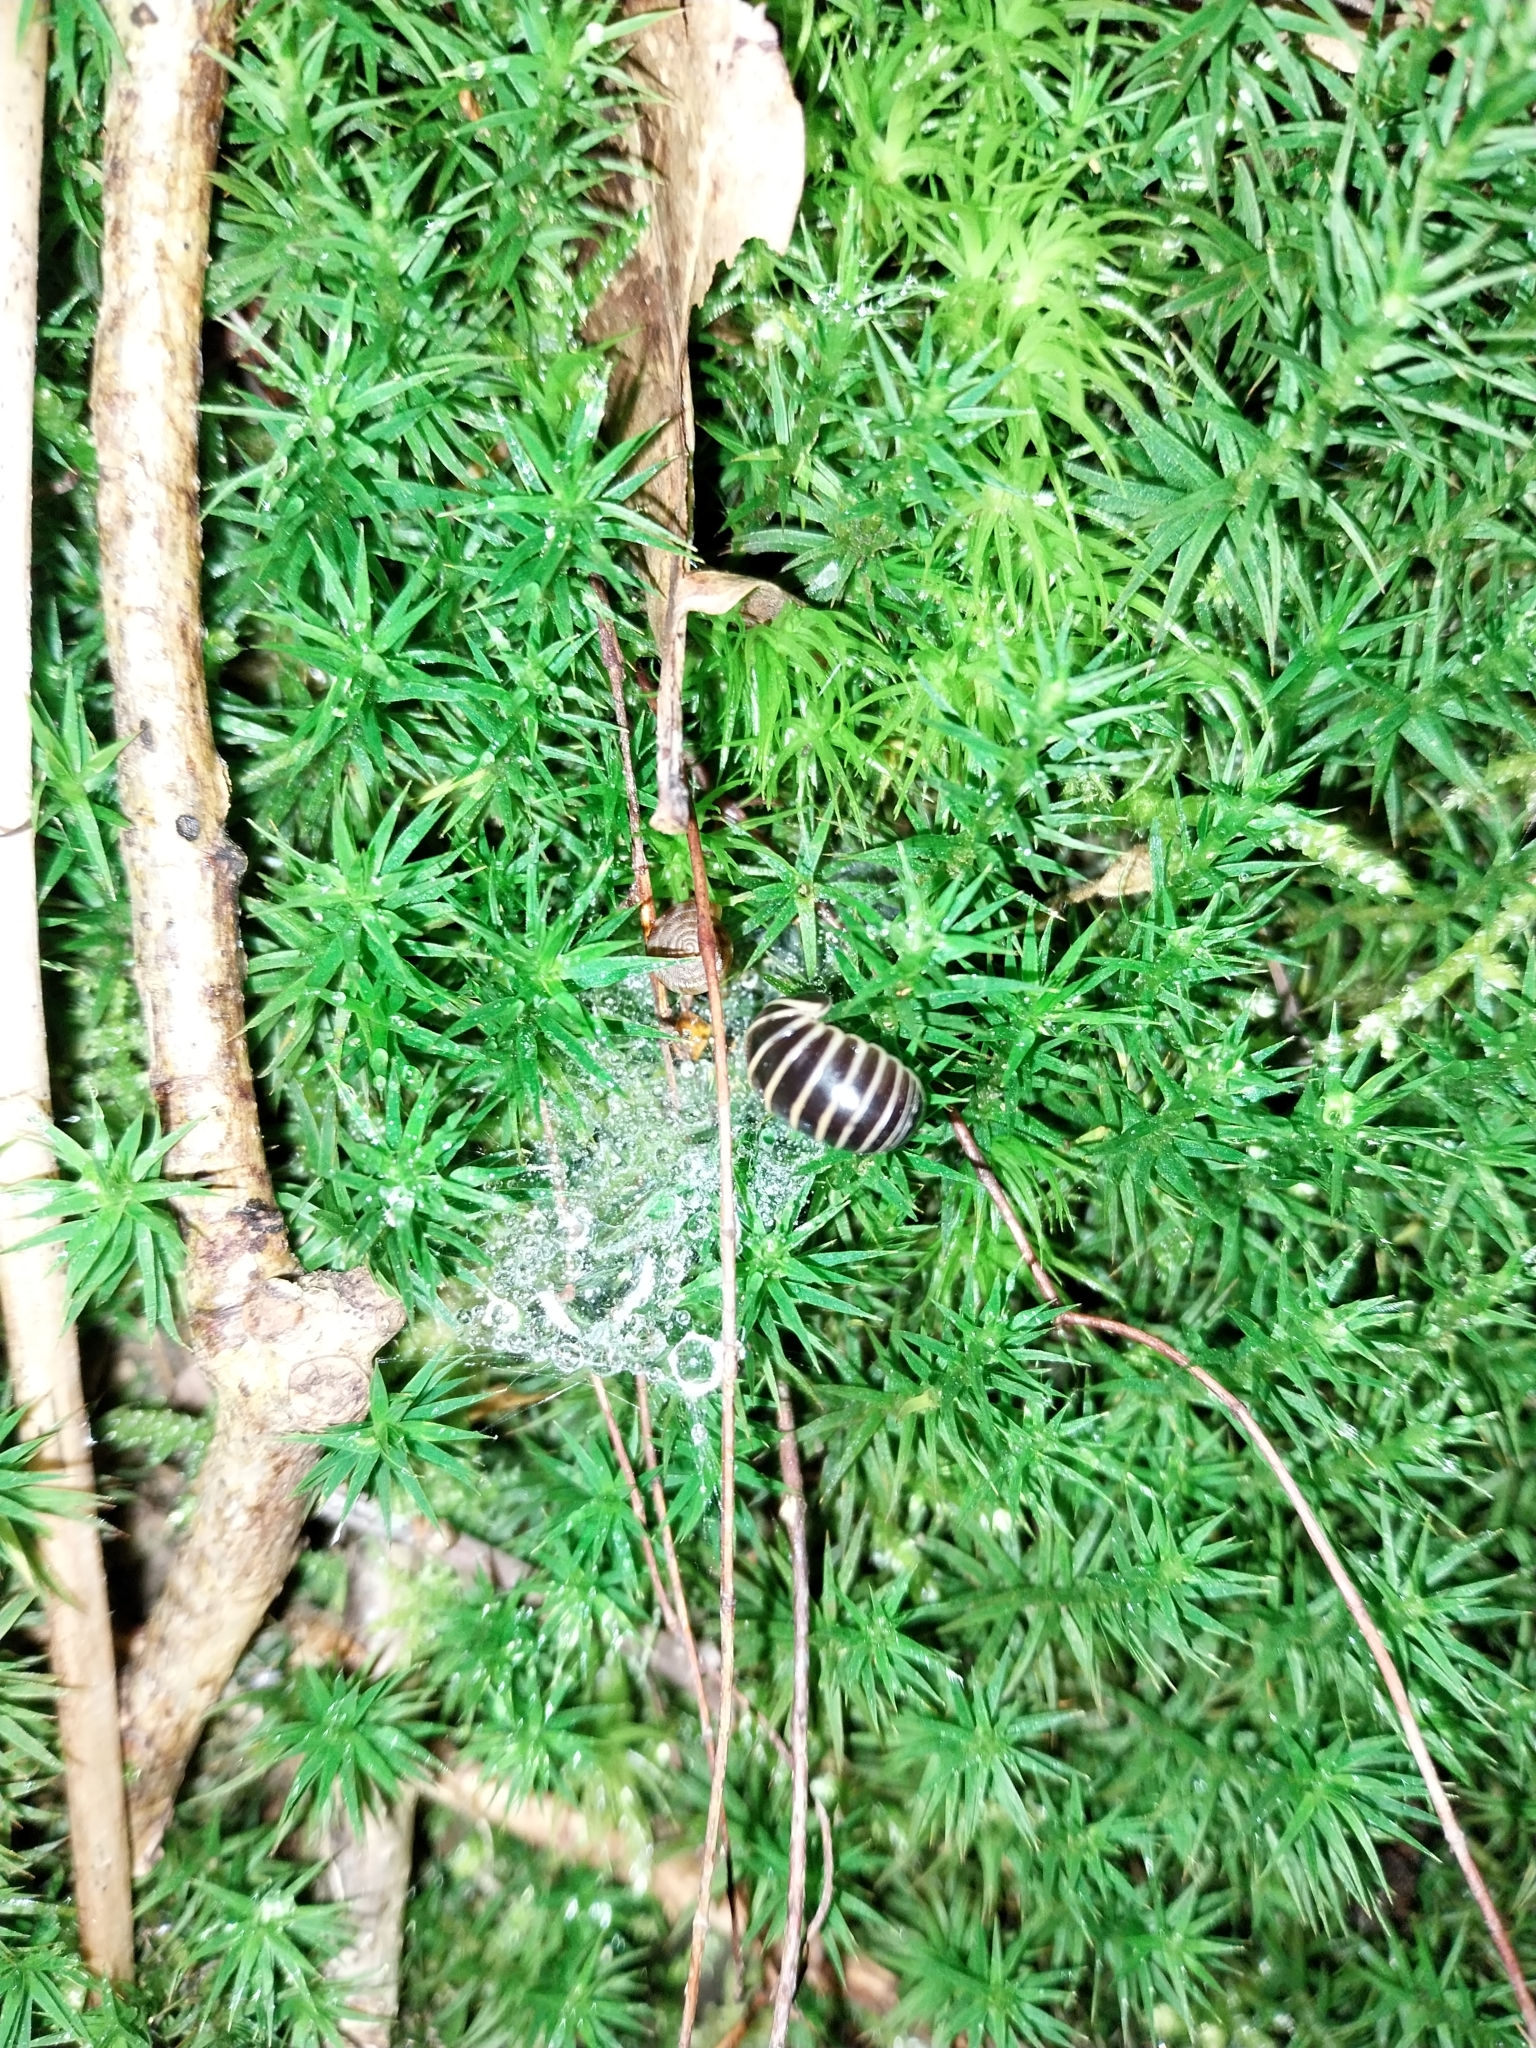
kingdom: Animalia
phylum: Arthropoda
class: Diplopoda
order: Glomerida
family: Glomeridae
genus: Glomeris
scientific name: Glomeris marginata
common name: Bordered pill millipede
